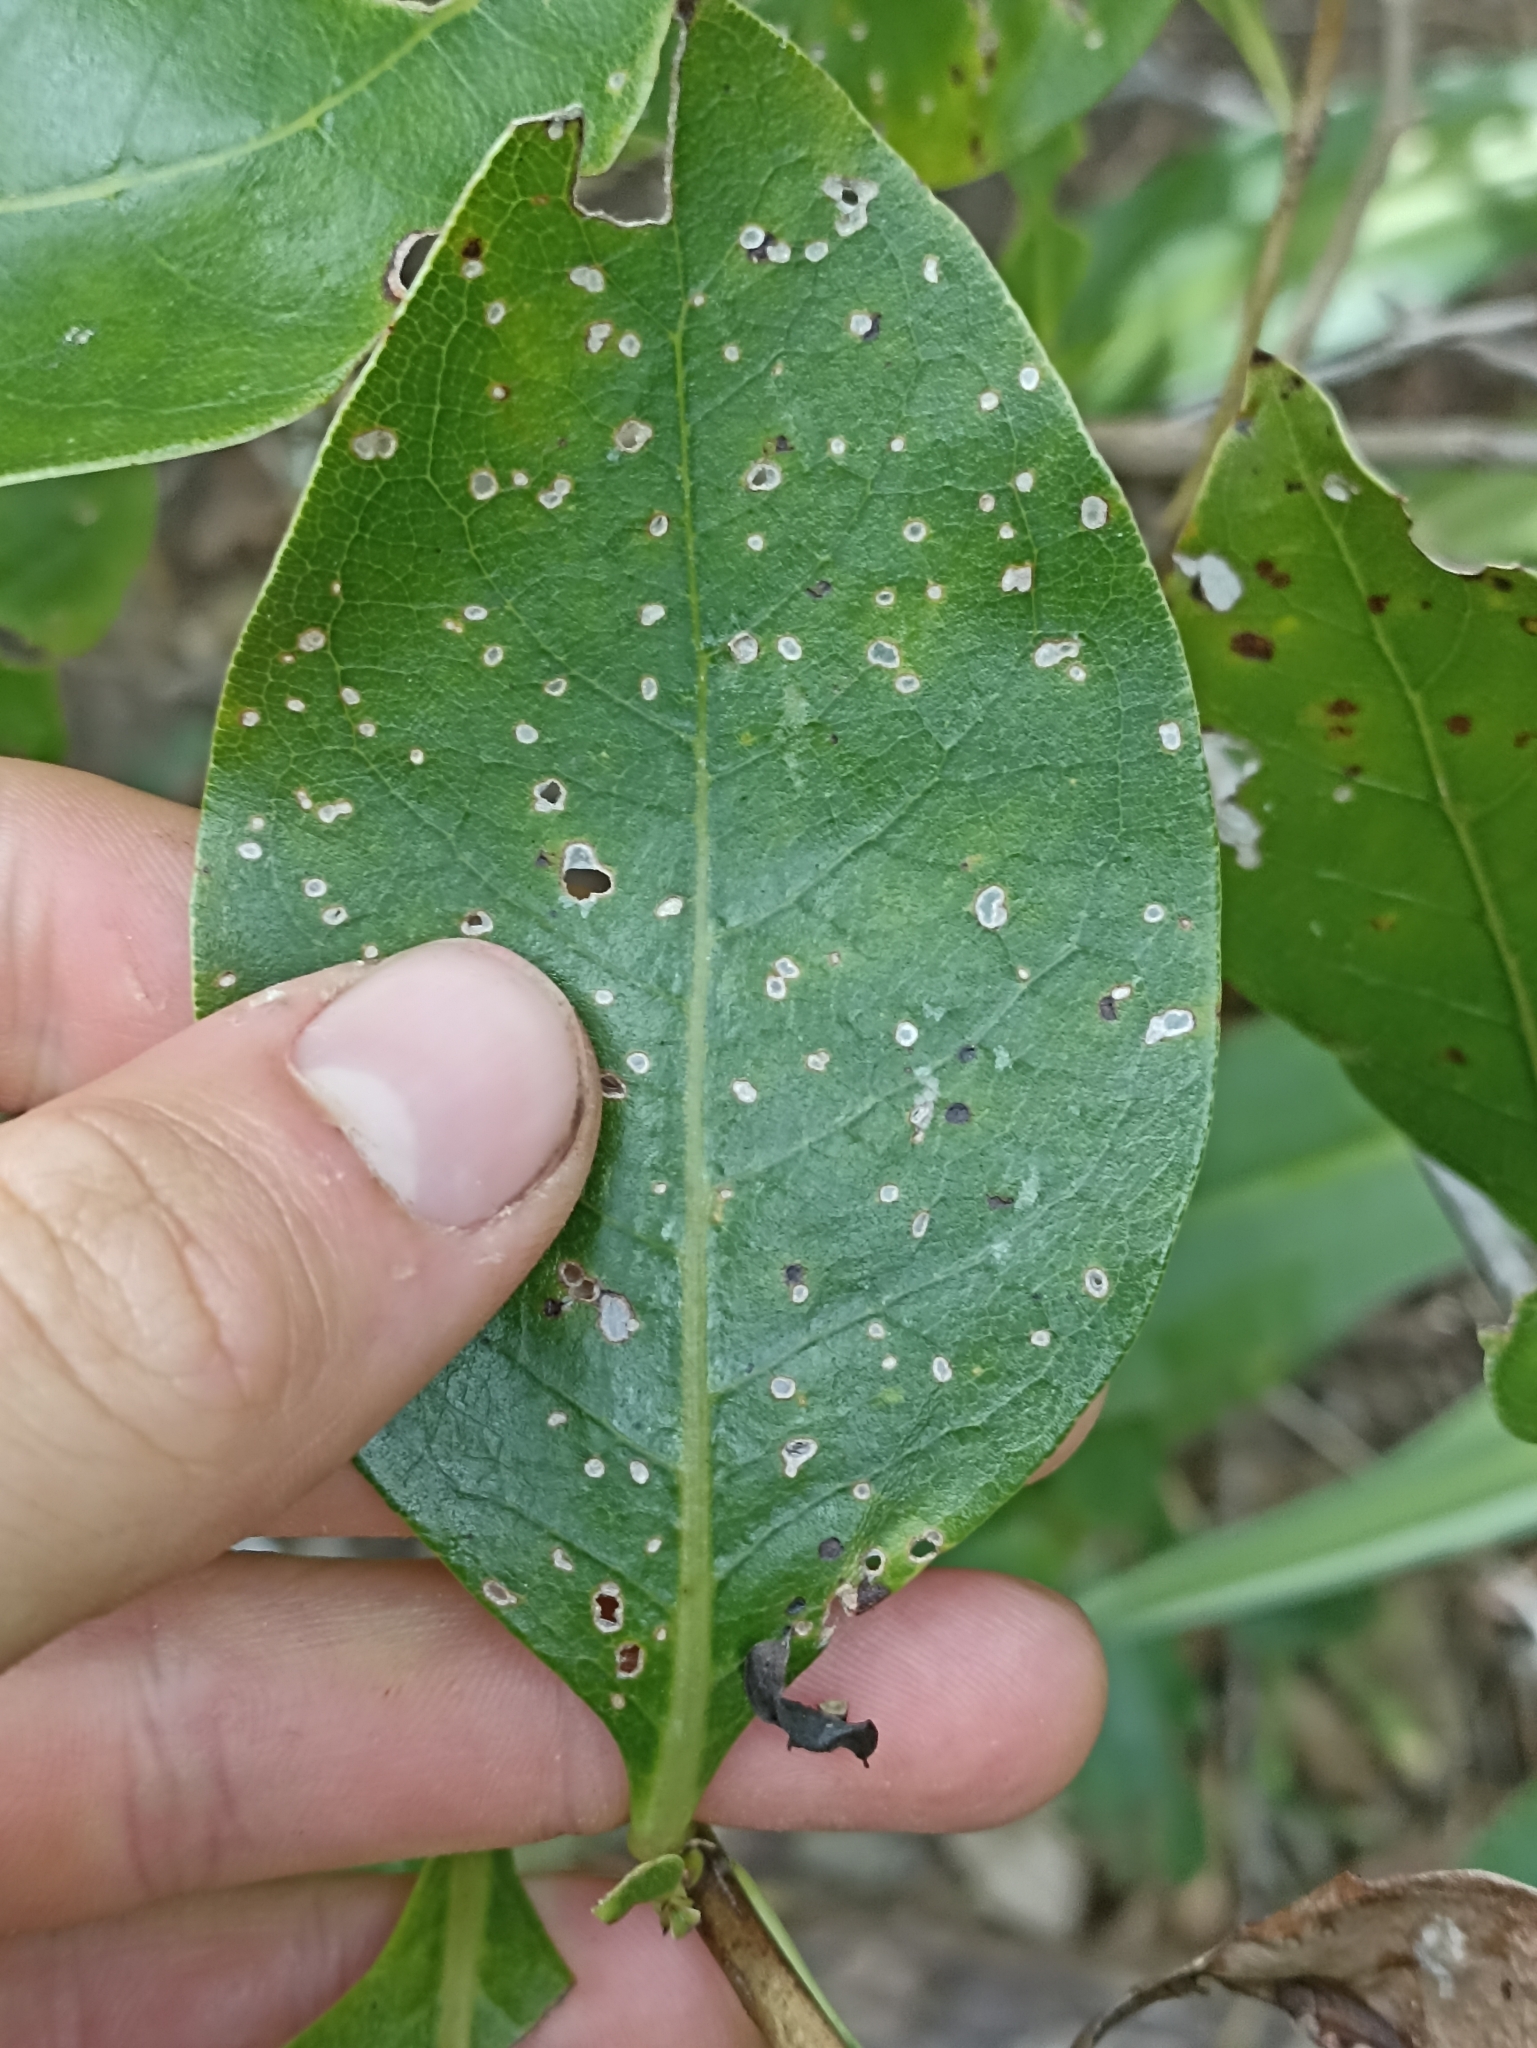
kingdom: Plantae
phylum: Tracheophyta
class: Magnoliopsida
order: Gentianales
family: Rubiaceae
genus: Coprosma
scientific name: Coprosma macrocarpa
